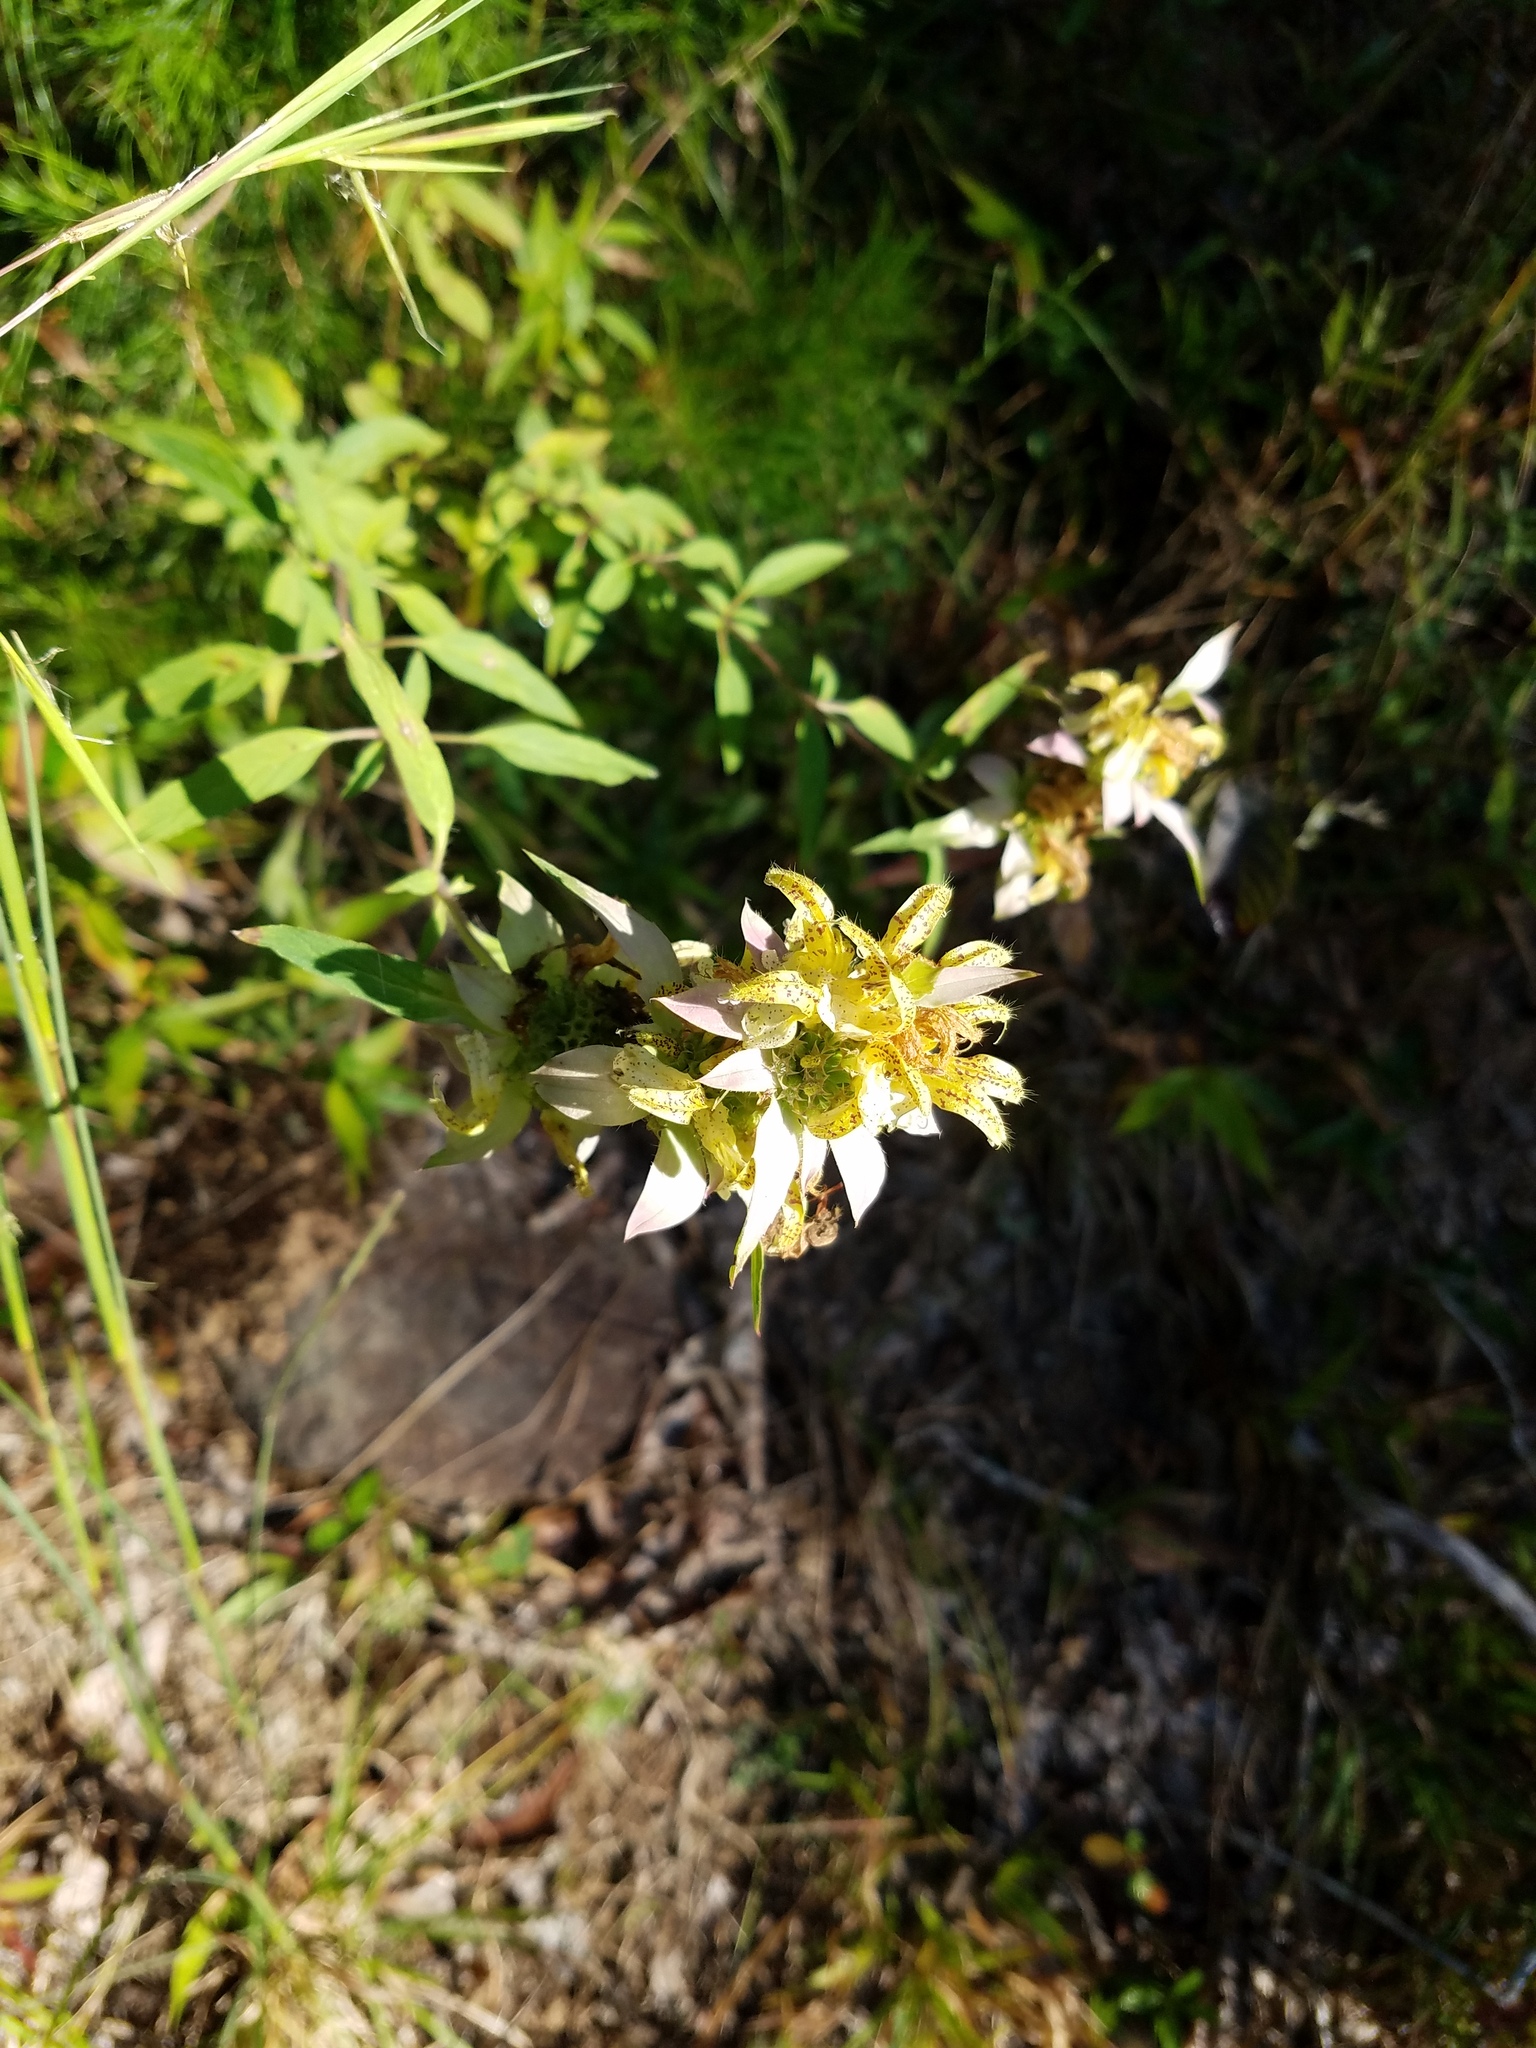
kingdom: Plantae
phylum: Tracheophyta
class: Magnoliopsida
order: Lamiales
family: Lamiaceae
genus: Monarda
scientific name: Monarda punctata
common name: Dotted monarda
